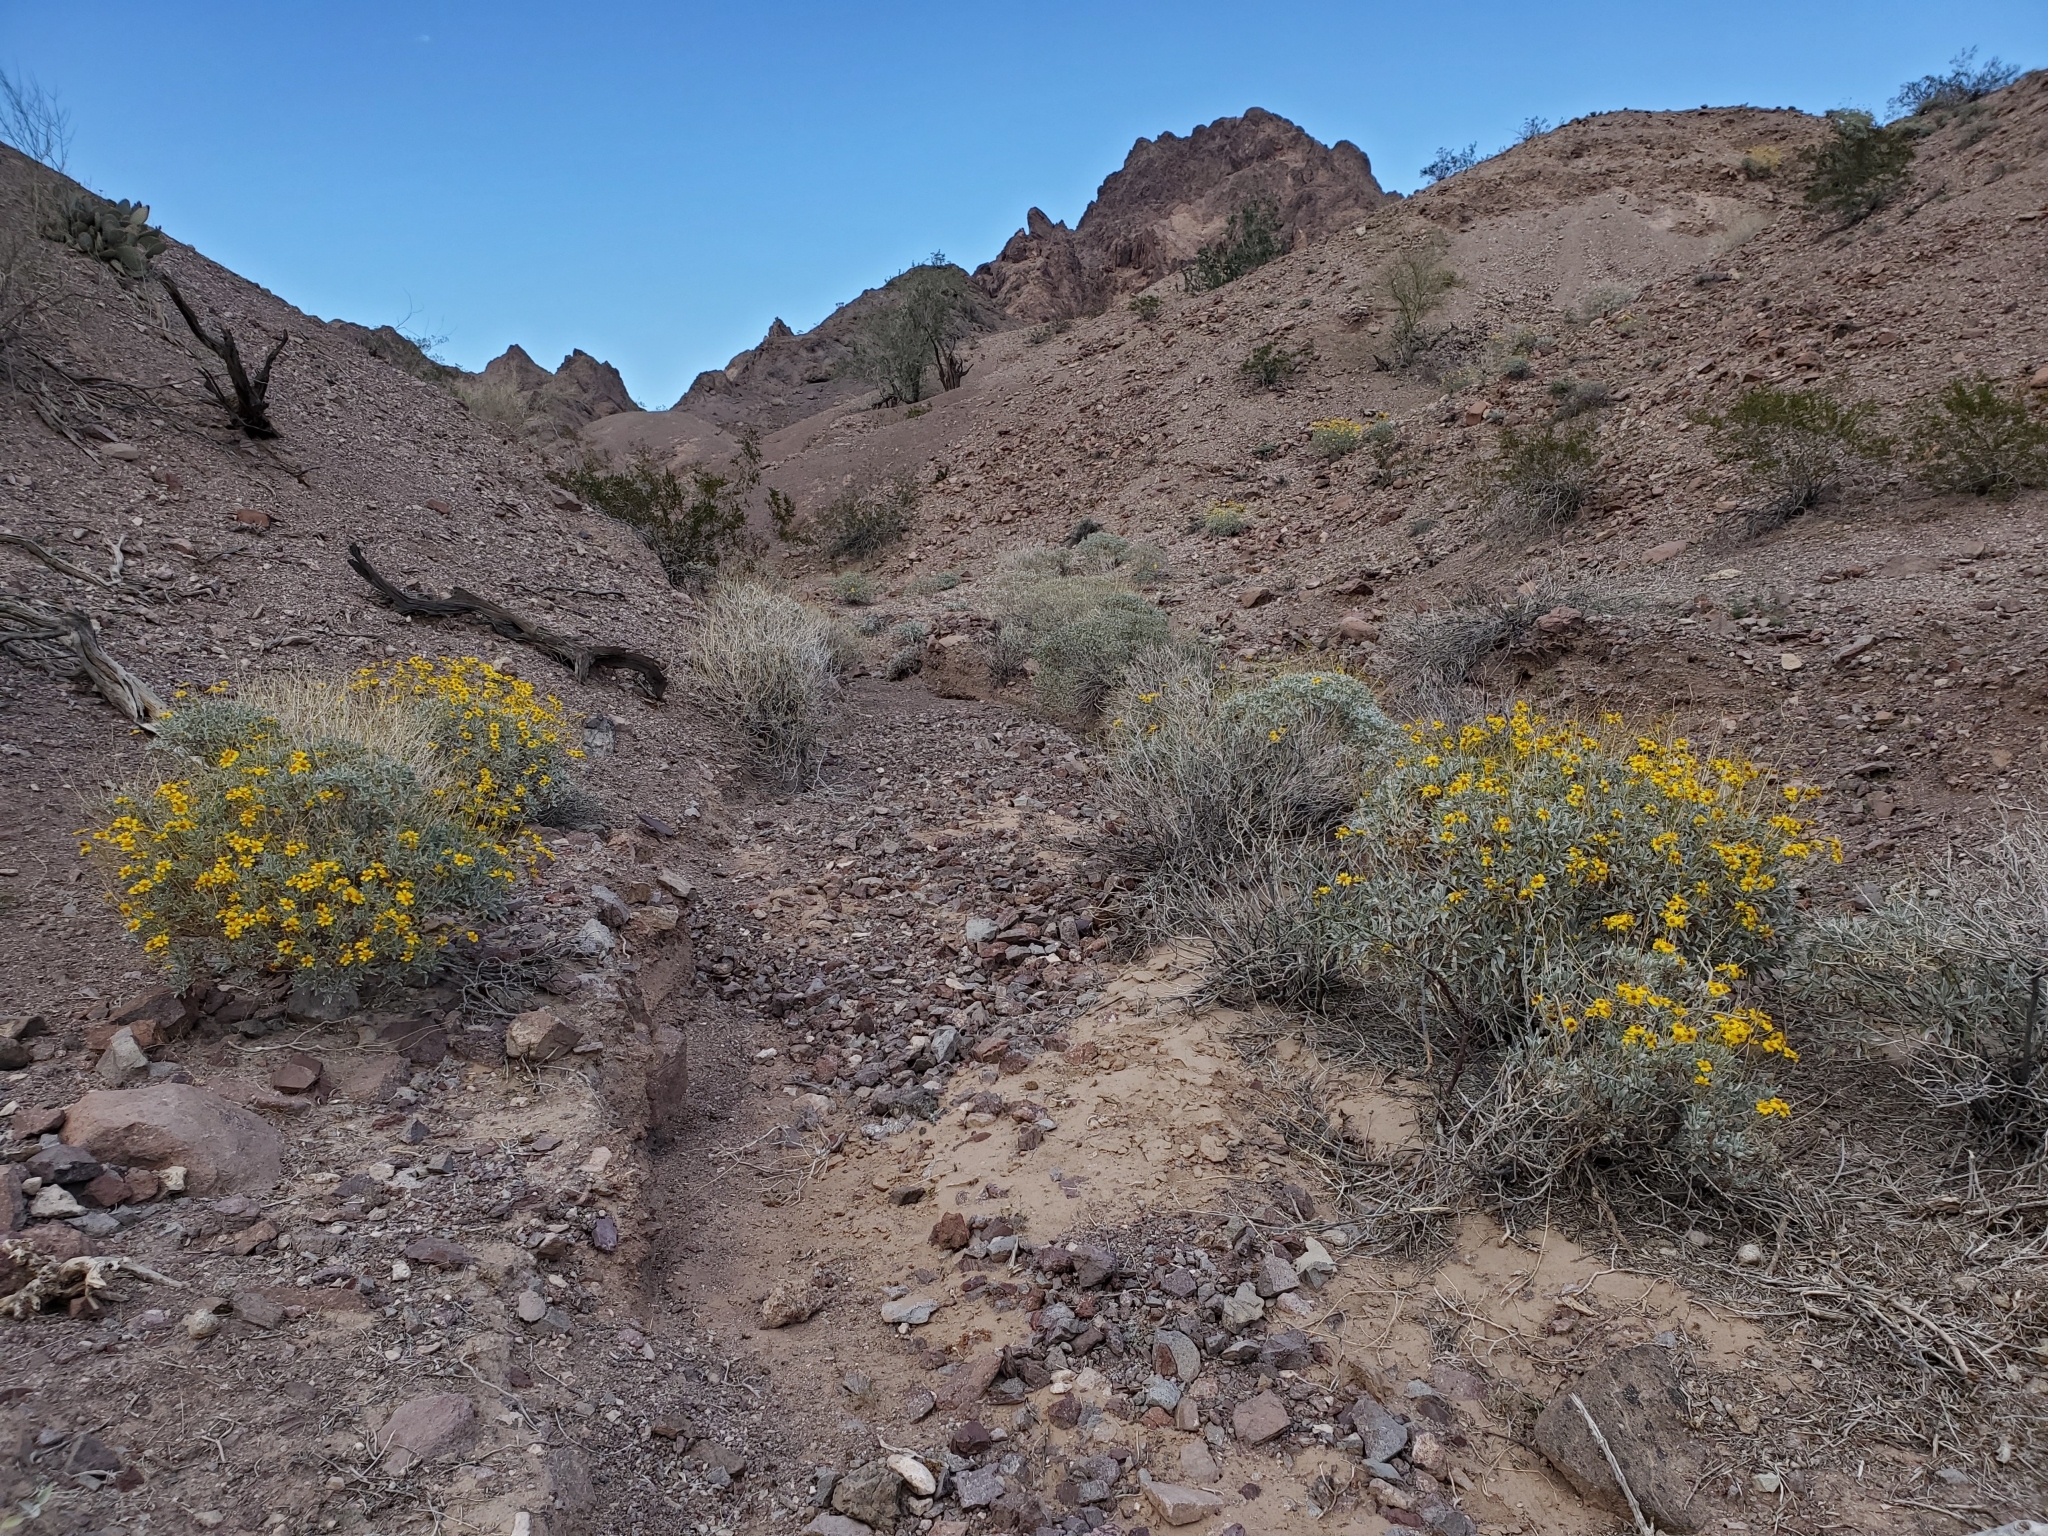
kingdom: Plantae
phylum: Tracheophyta
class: Magnoliopsida
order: Asterales
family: Asteraceae
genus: Encelia
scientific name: Encelia farinosa
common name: Brittlebush
